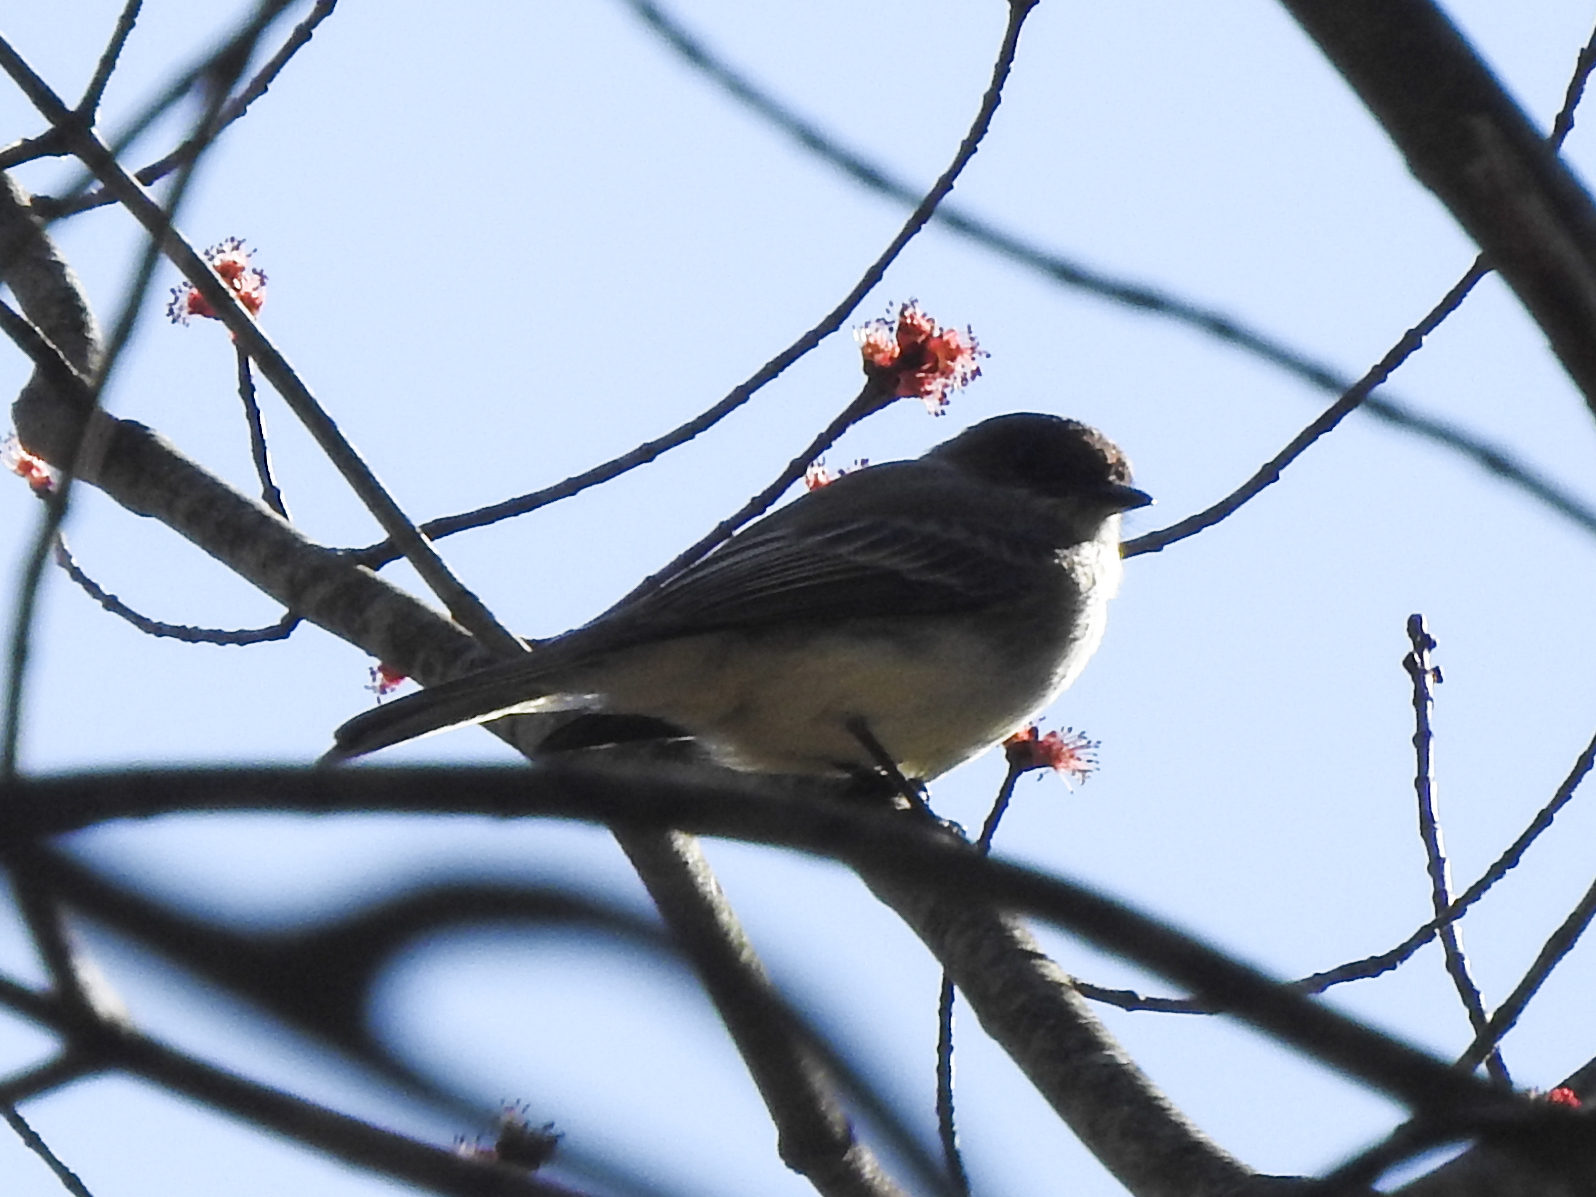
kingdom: Animalia
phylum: Chordata
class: Aves
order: Passeriformes
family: Tyrannidae
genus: Sayornis
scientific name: Sayornis phoebe
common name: Eastern phoebe
